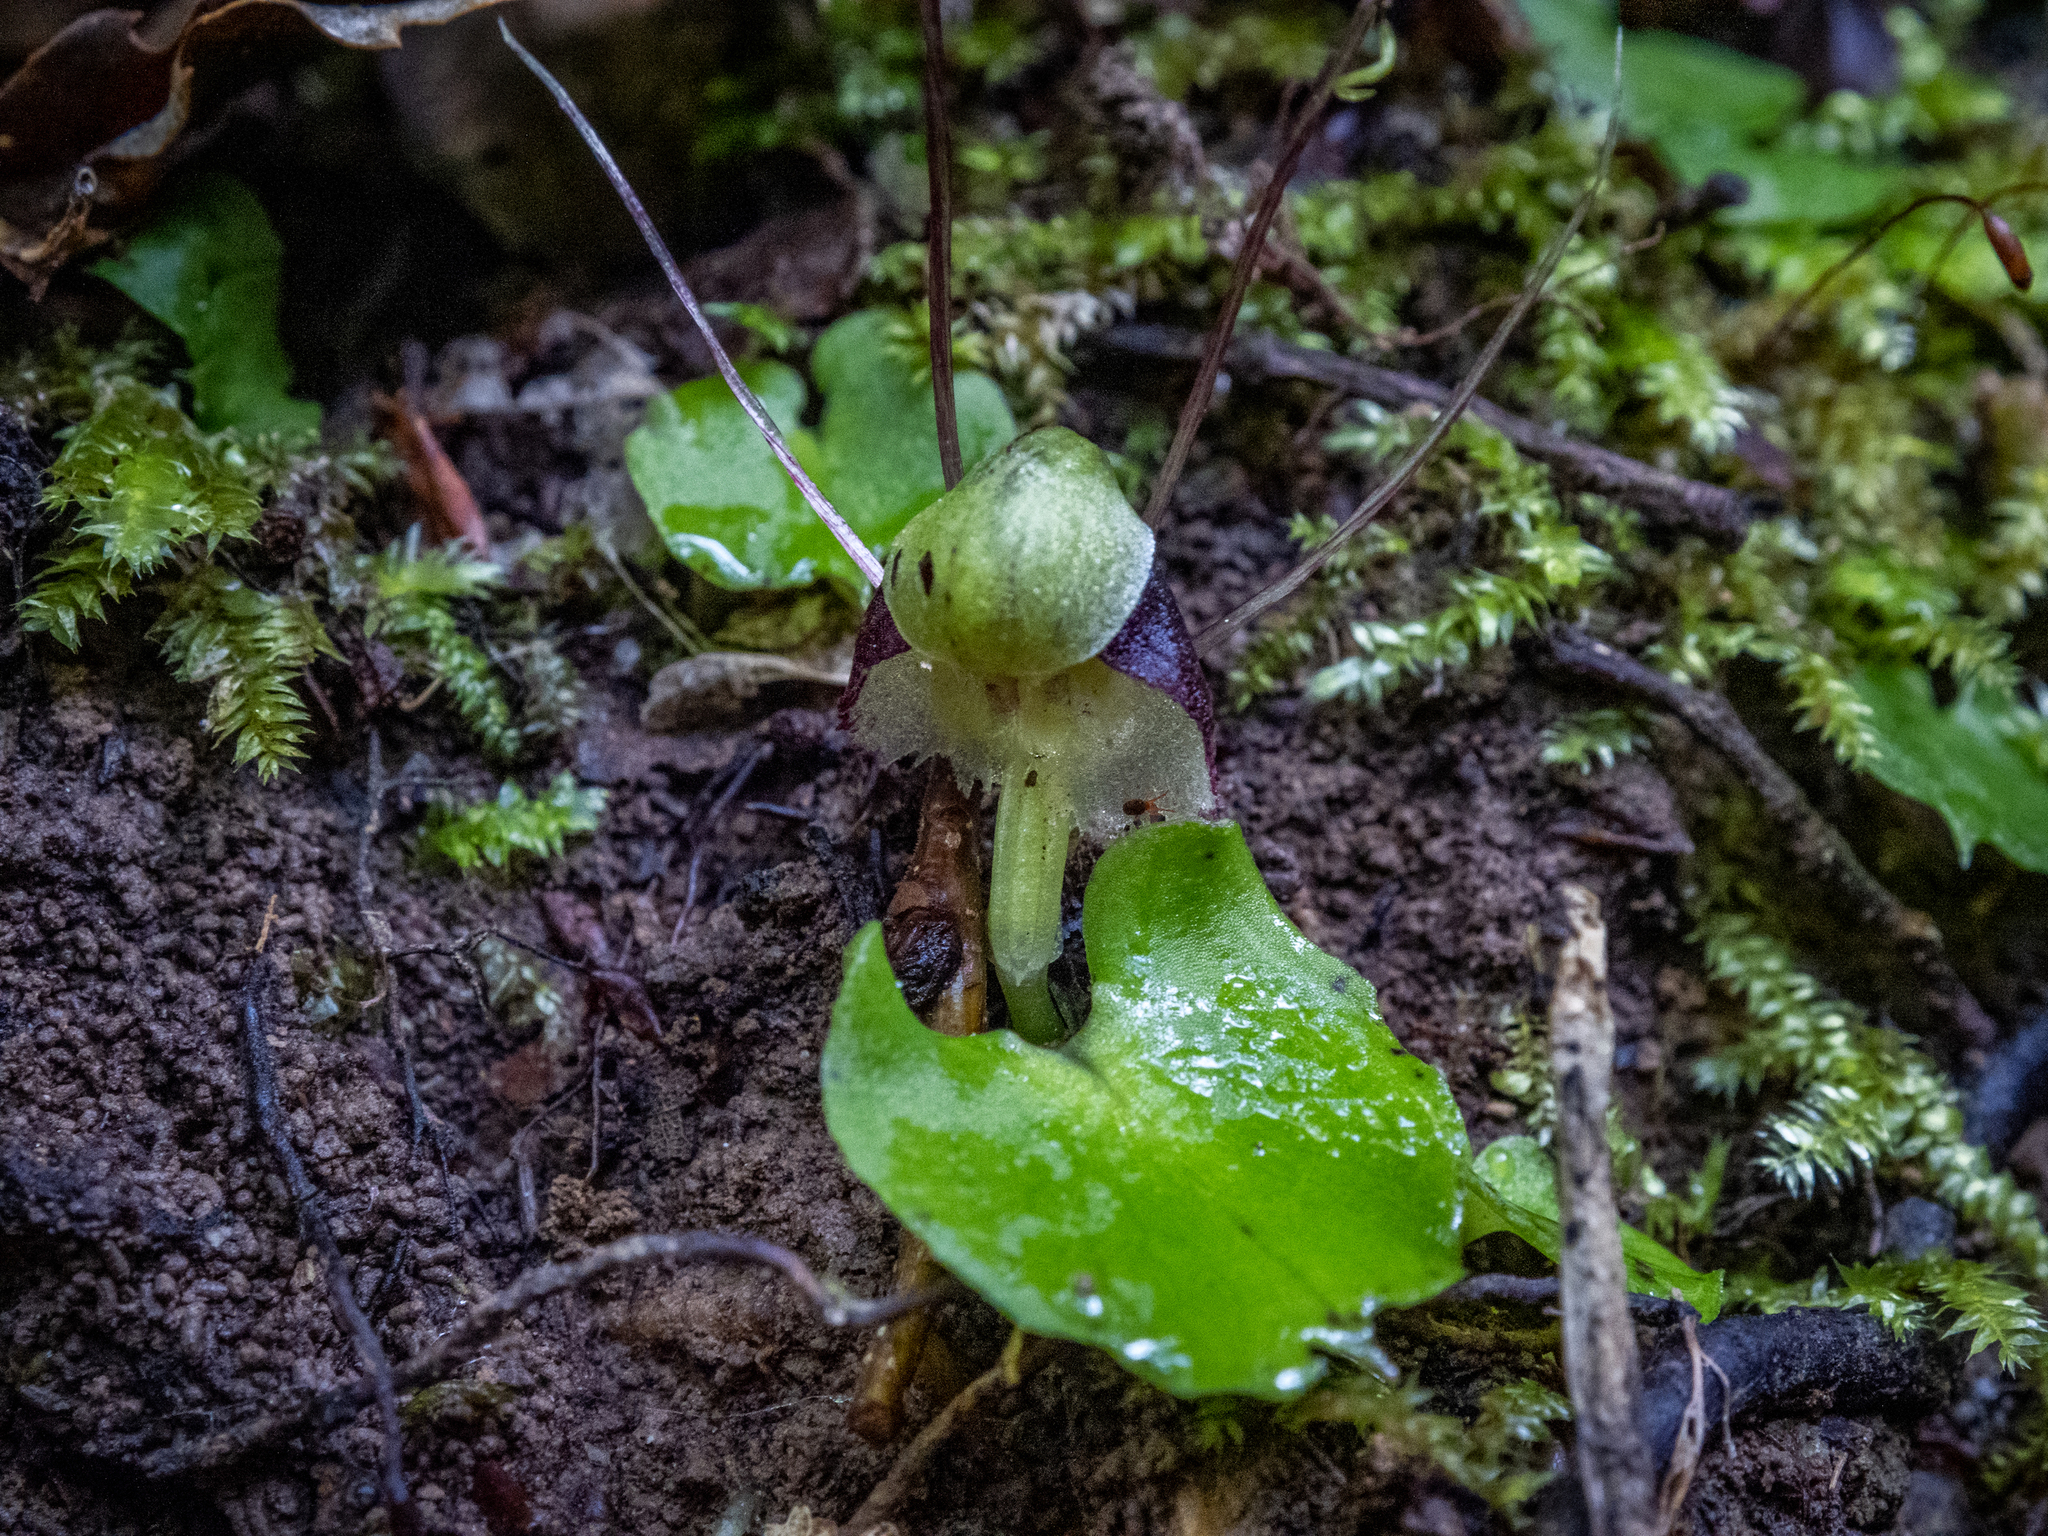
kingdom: Plantae
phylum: Tracheophyta
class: Liliopsida
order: Asparagales
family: Orchidaceae
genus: Corybas
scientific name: Corybas vitreus
